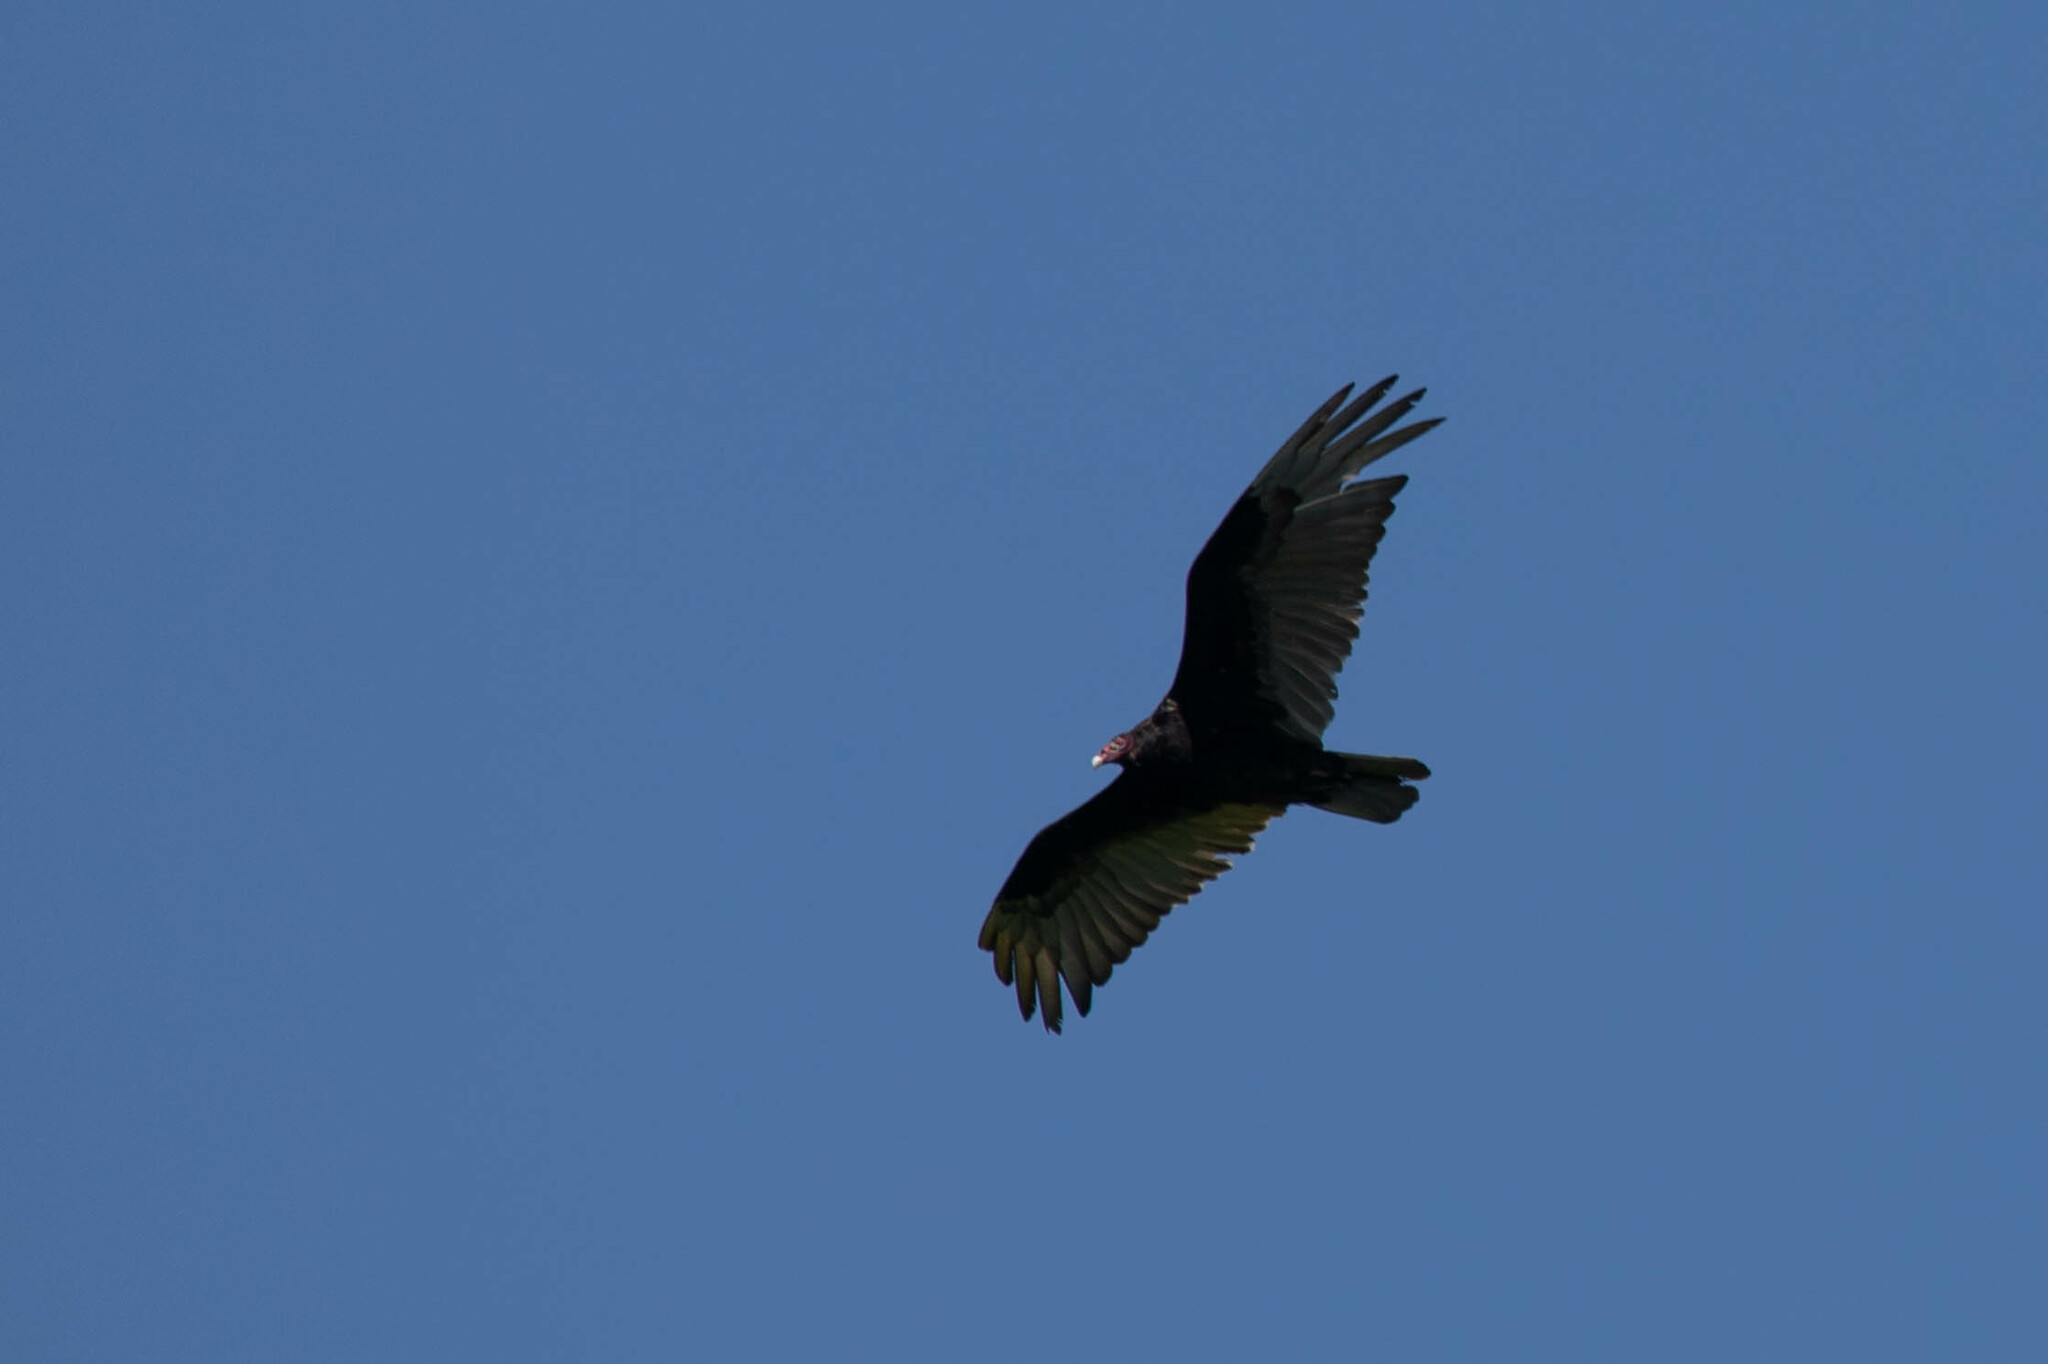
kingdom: Animalia
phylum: Chordata
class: Aves
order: Accipitriformes
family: Cathartidae
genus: Cathartes
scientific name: Cathartes aura
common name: Turkey vulture
